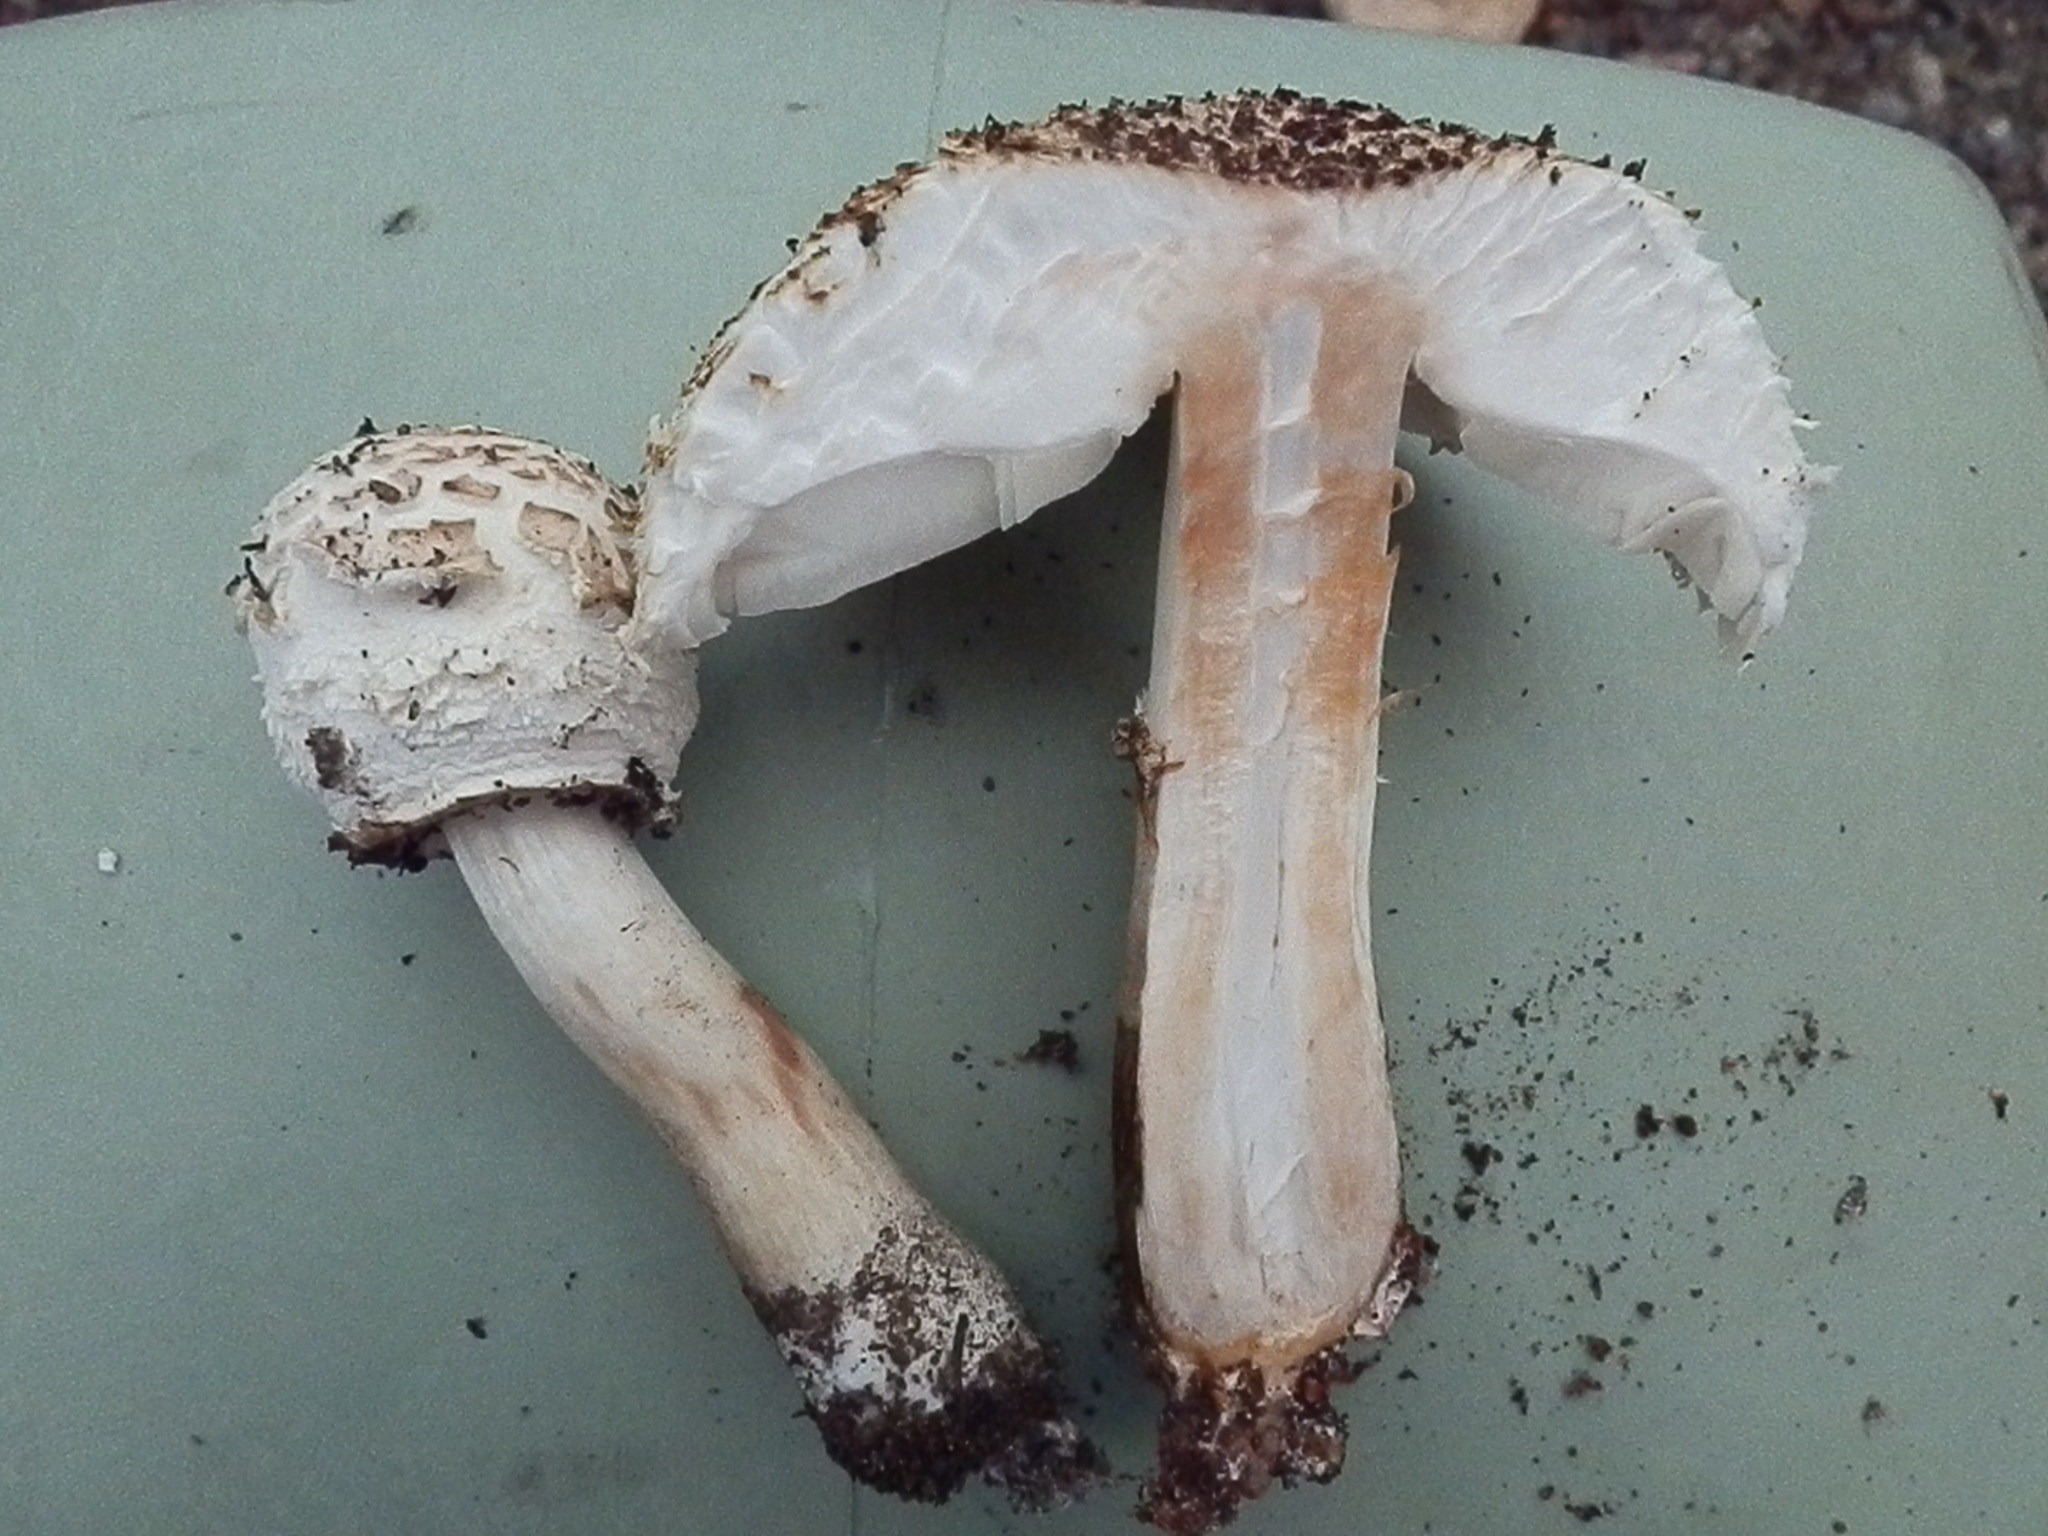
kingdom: Fungi
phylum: Basidiomycota
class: Agaricomycetes
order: Agaricales
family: Agaricaceae
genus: Chlorophyllum
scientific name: Chlorophyllum molybdites
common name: False parasol
